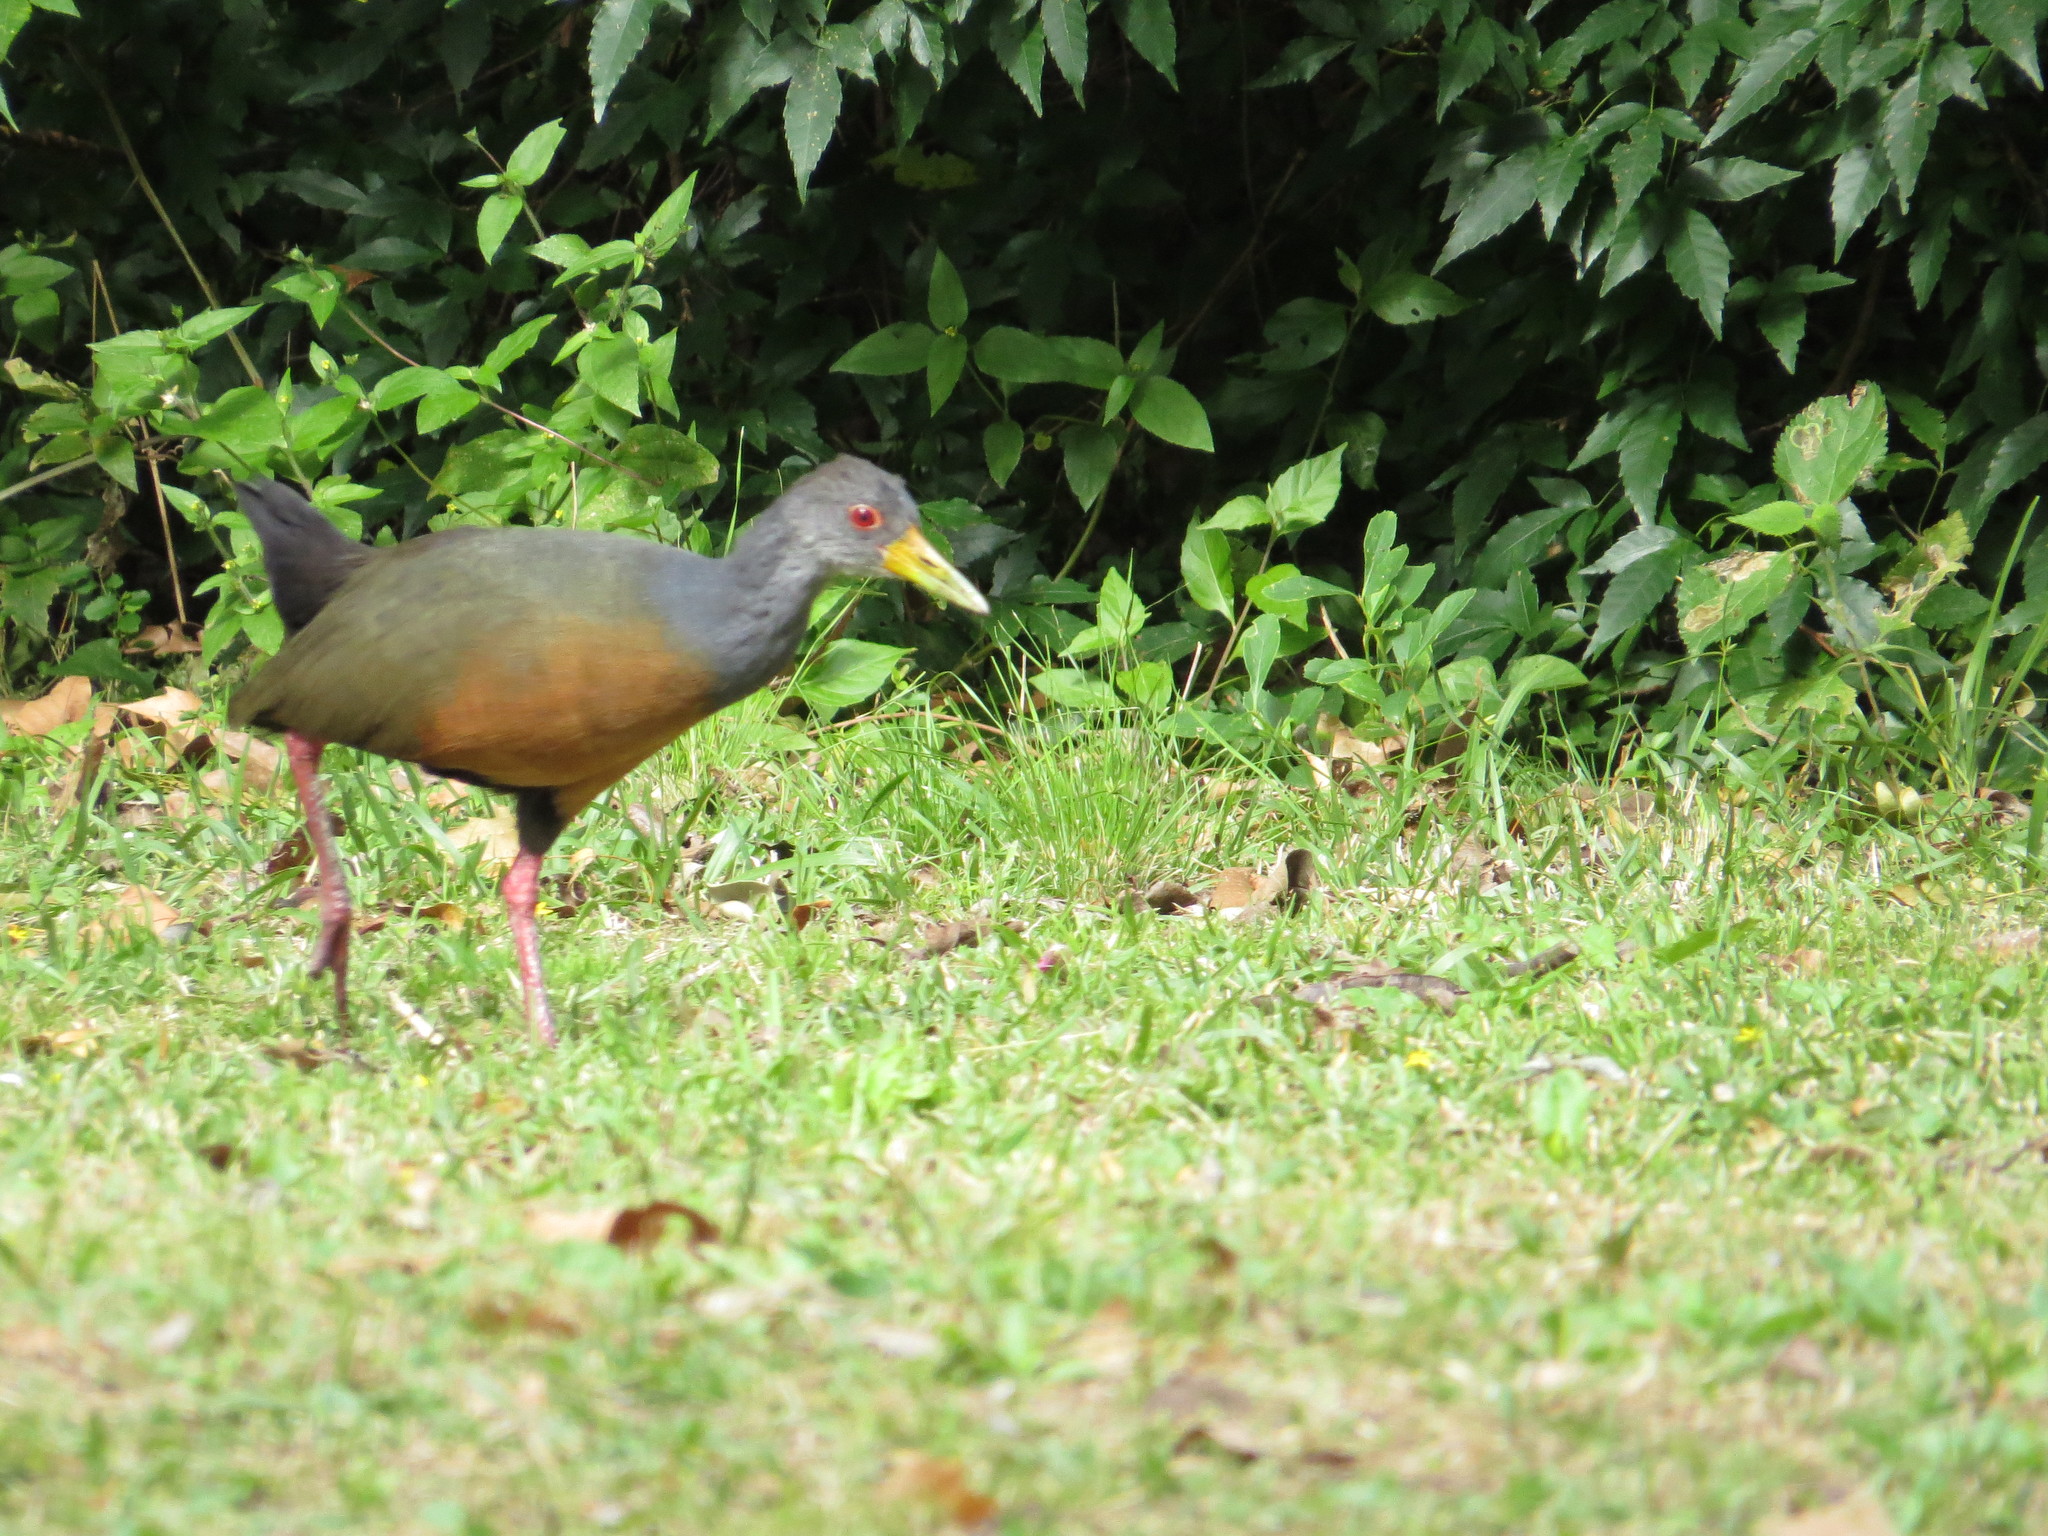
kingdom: Animalia
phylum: Chordata
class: Aves
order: Gruiformes
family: Rallidae
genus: Aramides
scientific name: Aramides cajanea
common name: Gray-necked wood-rail
